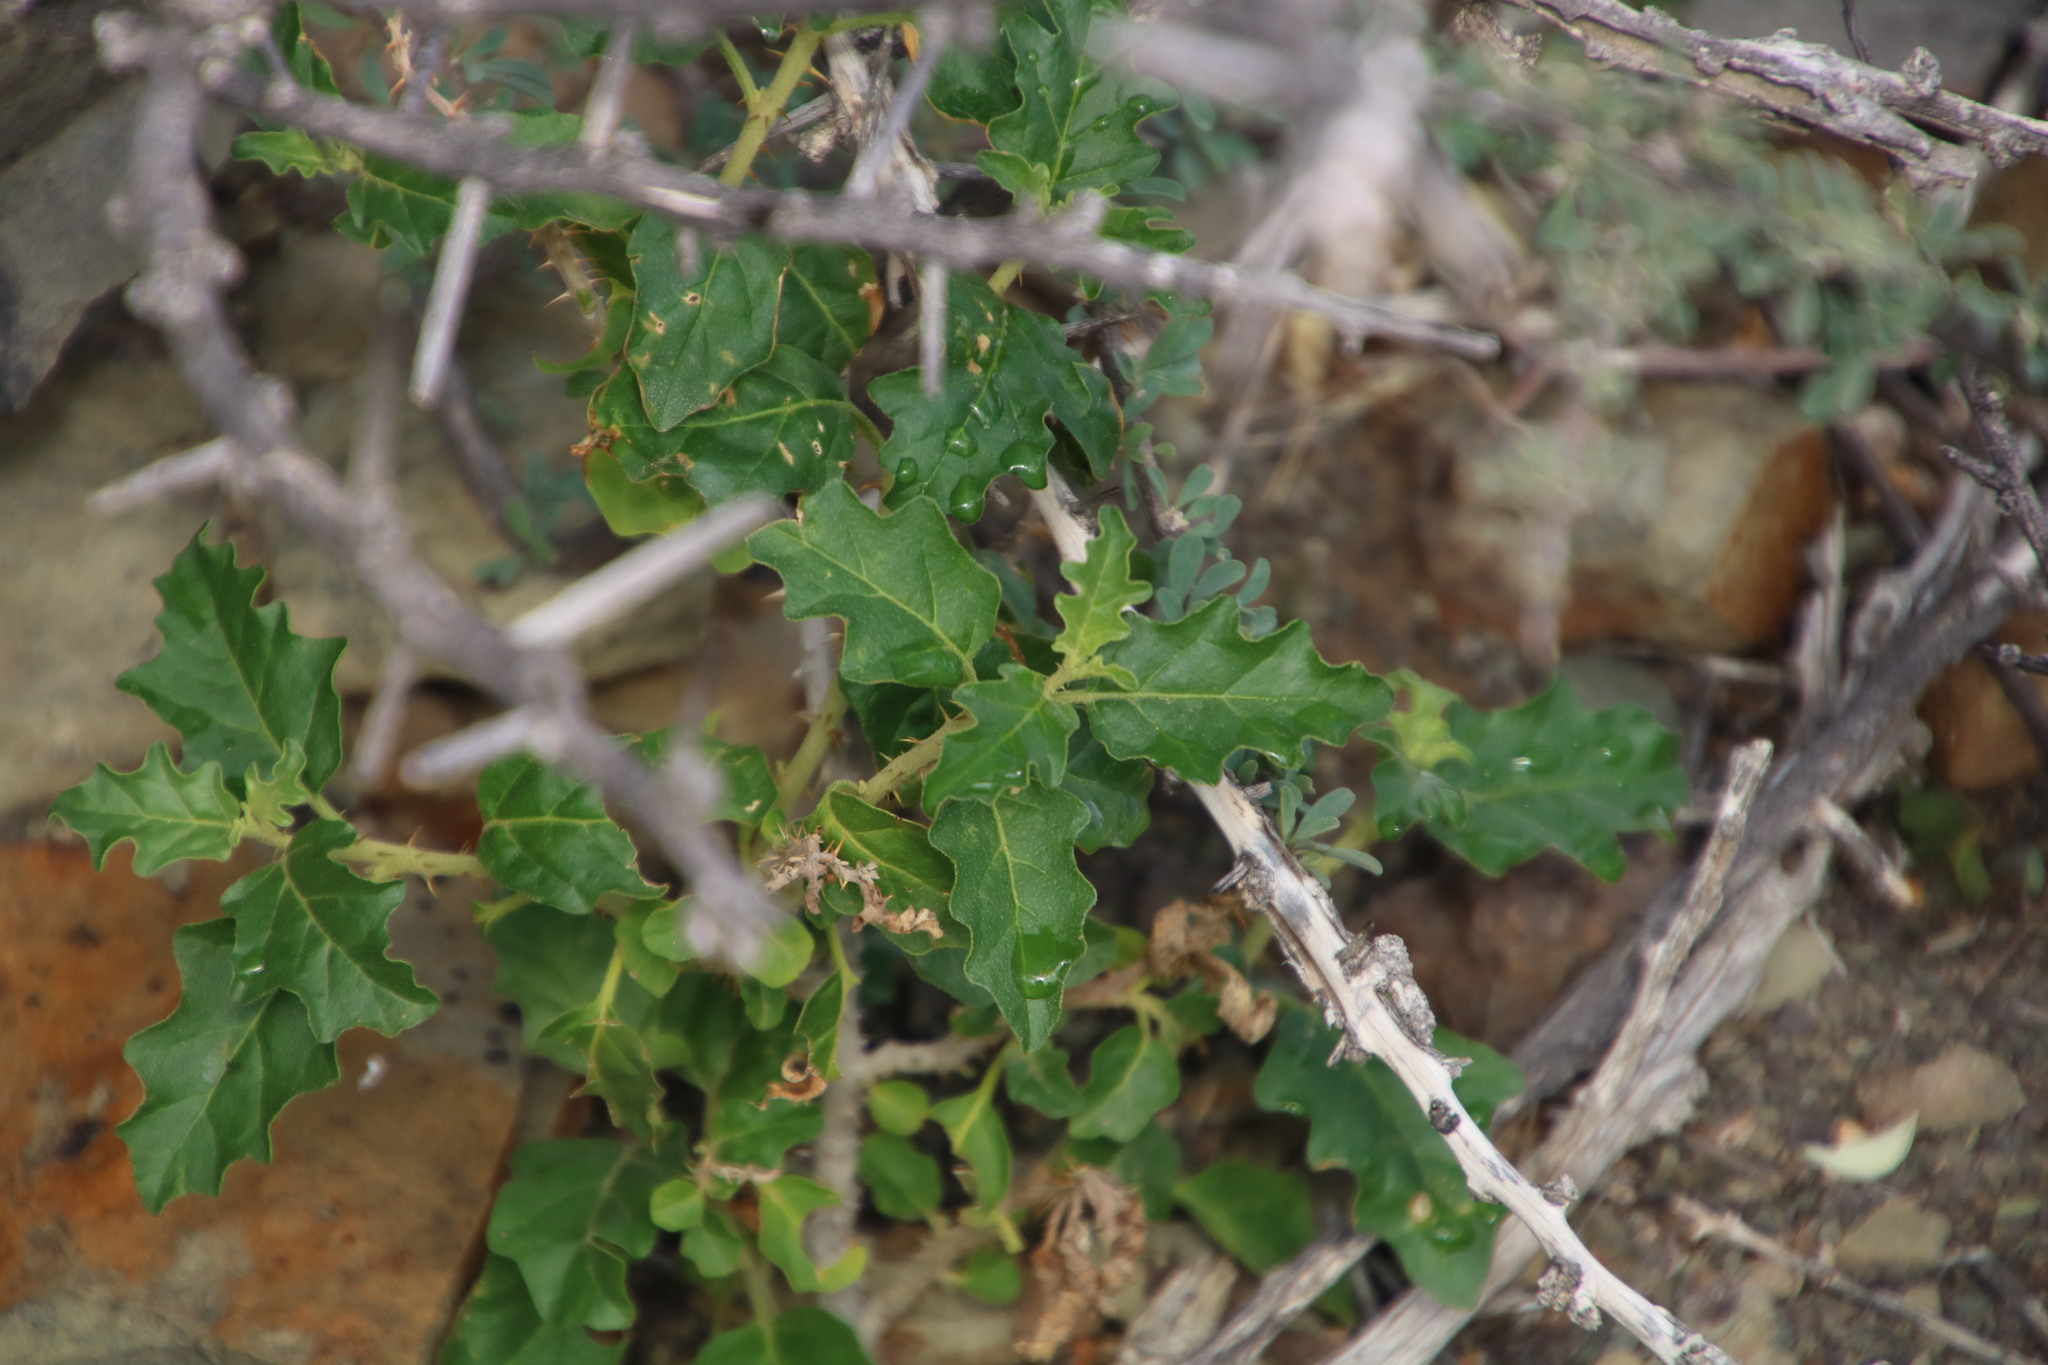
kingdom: Plantae
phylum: Tracheophyta
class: Magnoliopsida
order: Solanales
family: Solanaceae
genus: Solanum
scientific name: Solanum capense
